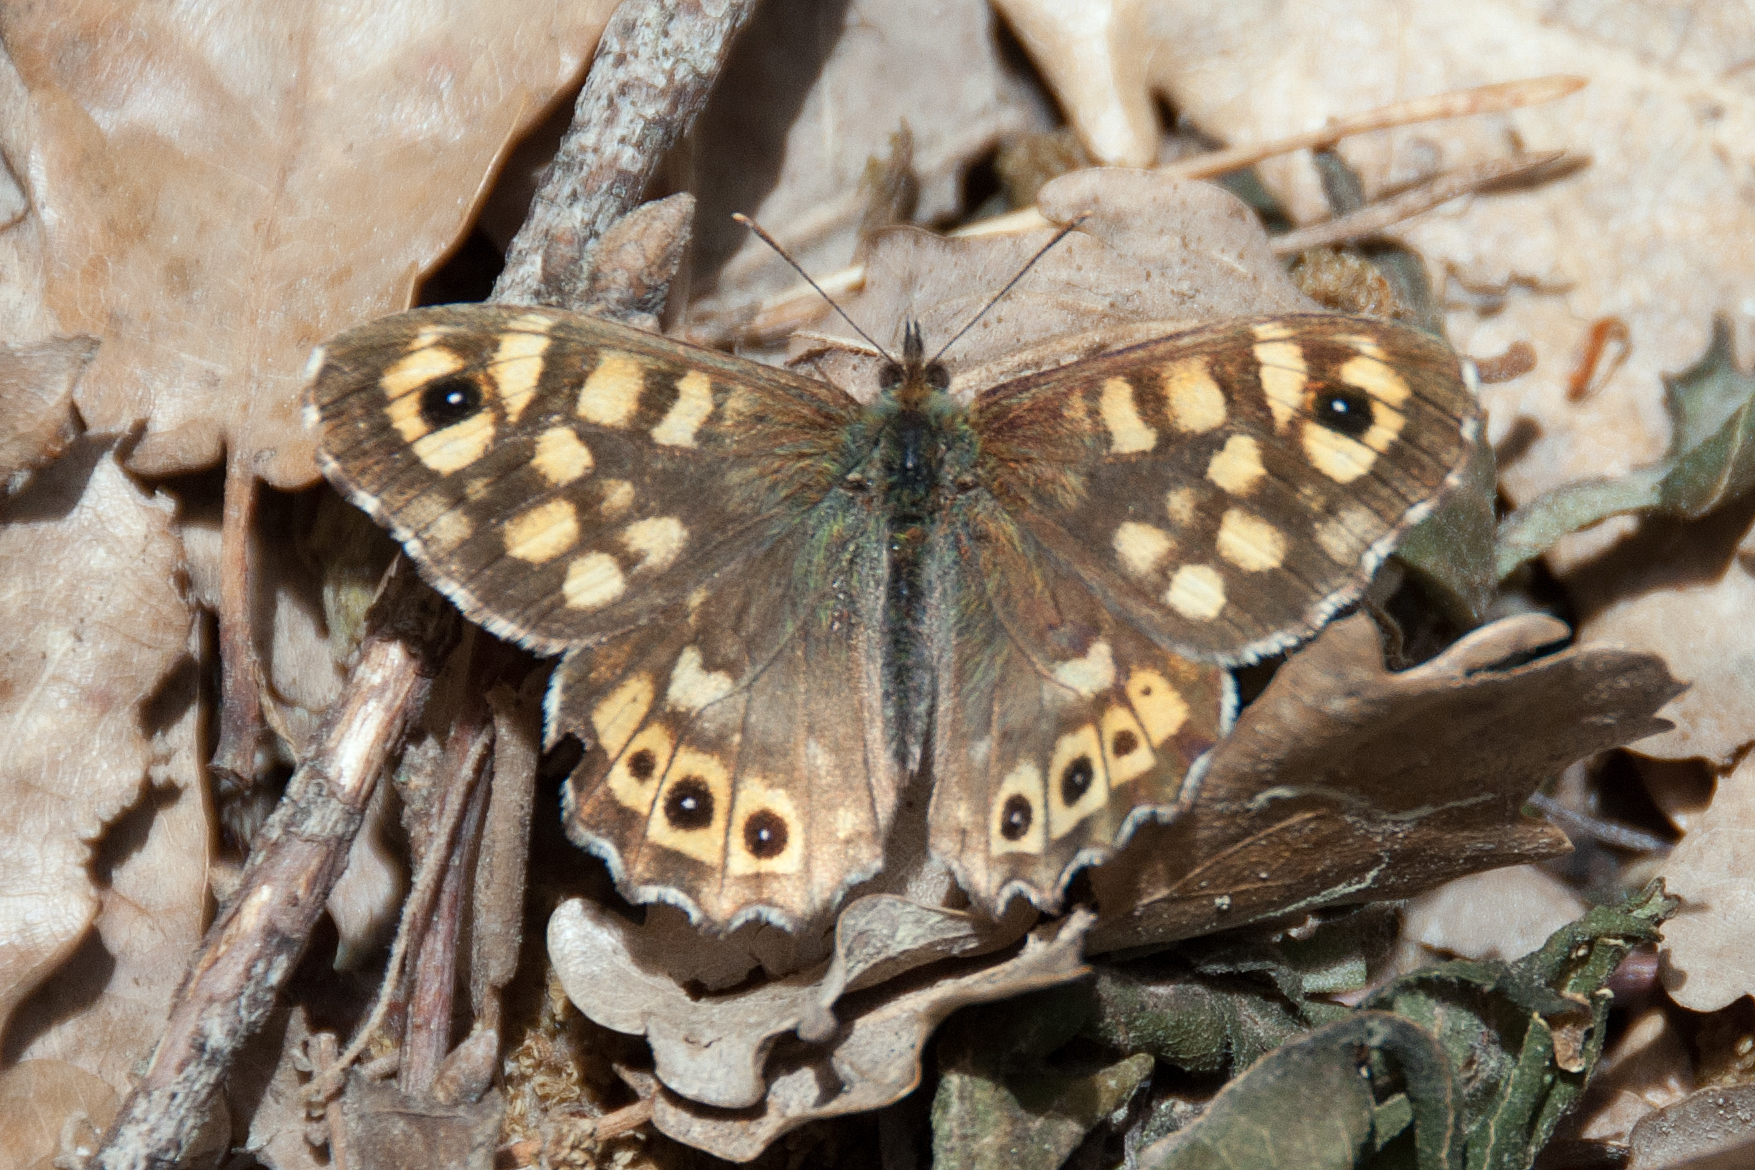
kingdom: Animalia
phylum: Arthropoda
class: Insecta
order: Lepidoptera
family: Nymphalidae
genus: Pararge
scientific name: Pararge aegeria
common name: Speckled wood
